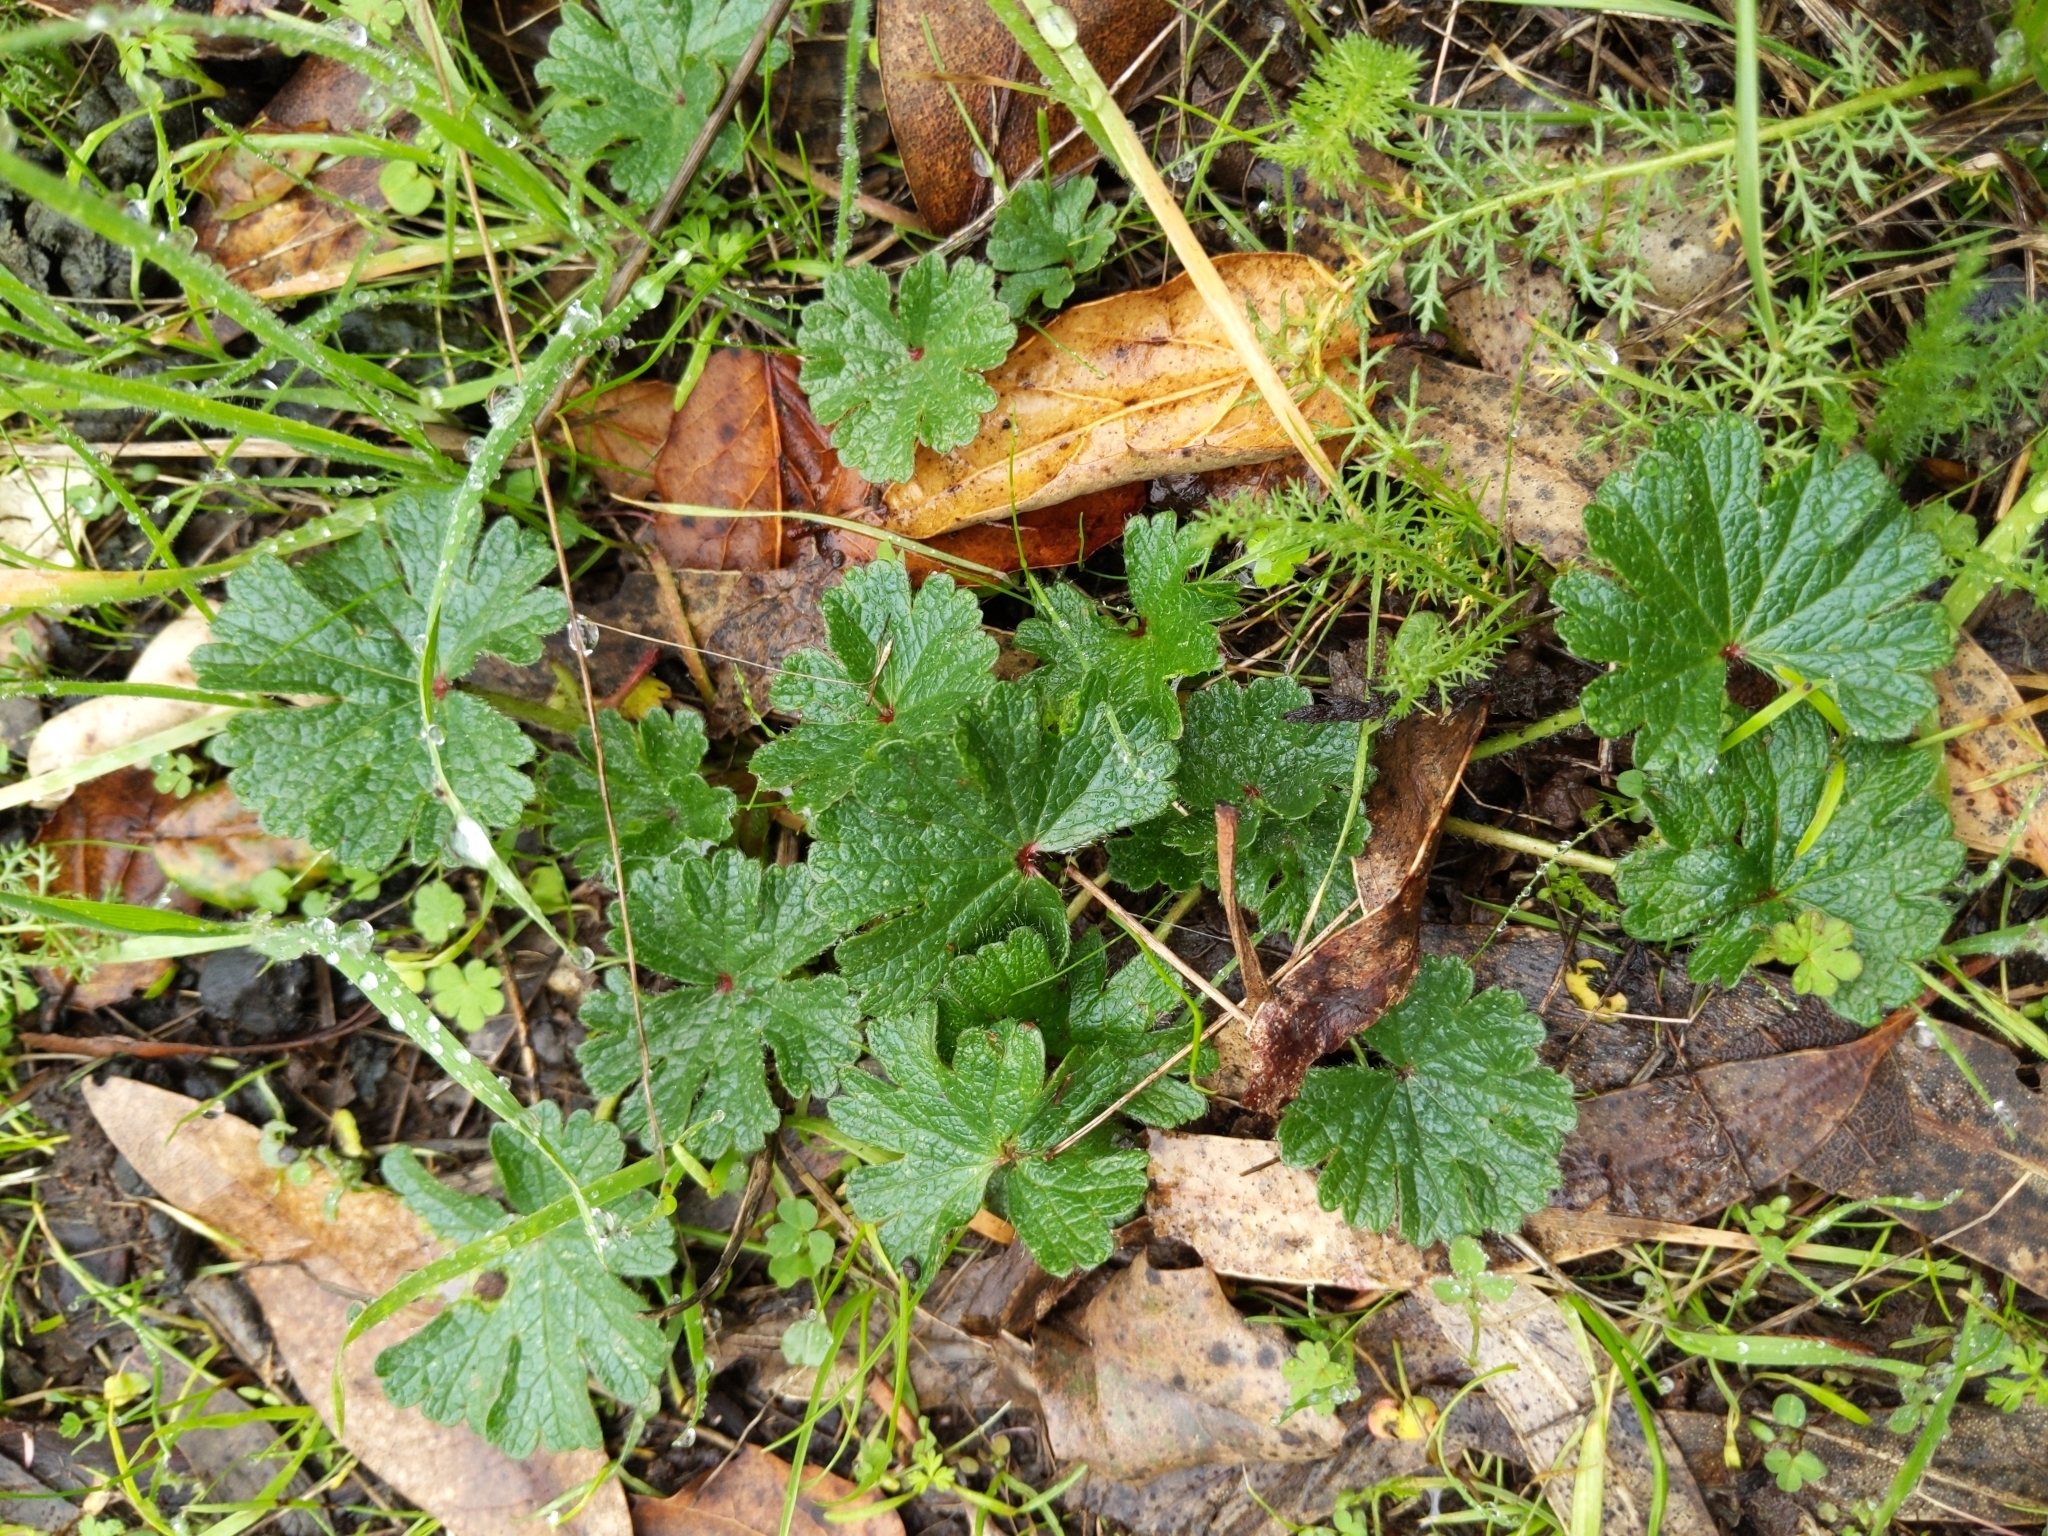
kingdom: Plantae
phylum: Tracheophyta
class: Magnoliopsida
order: Malvales
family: Malvaceae
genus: Sidalcea
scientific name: Sidalcea malviflora
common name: Greek mallow
